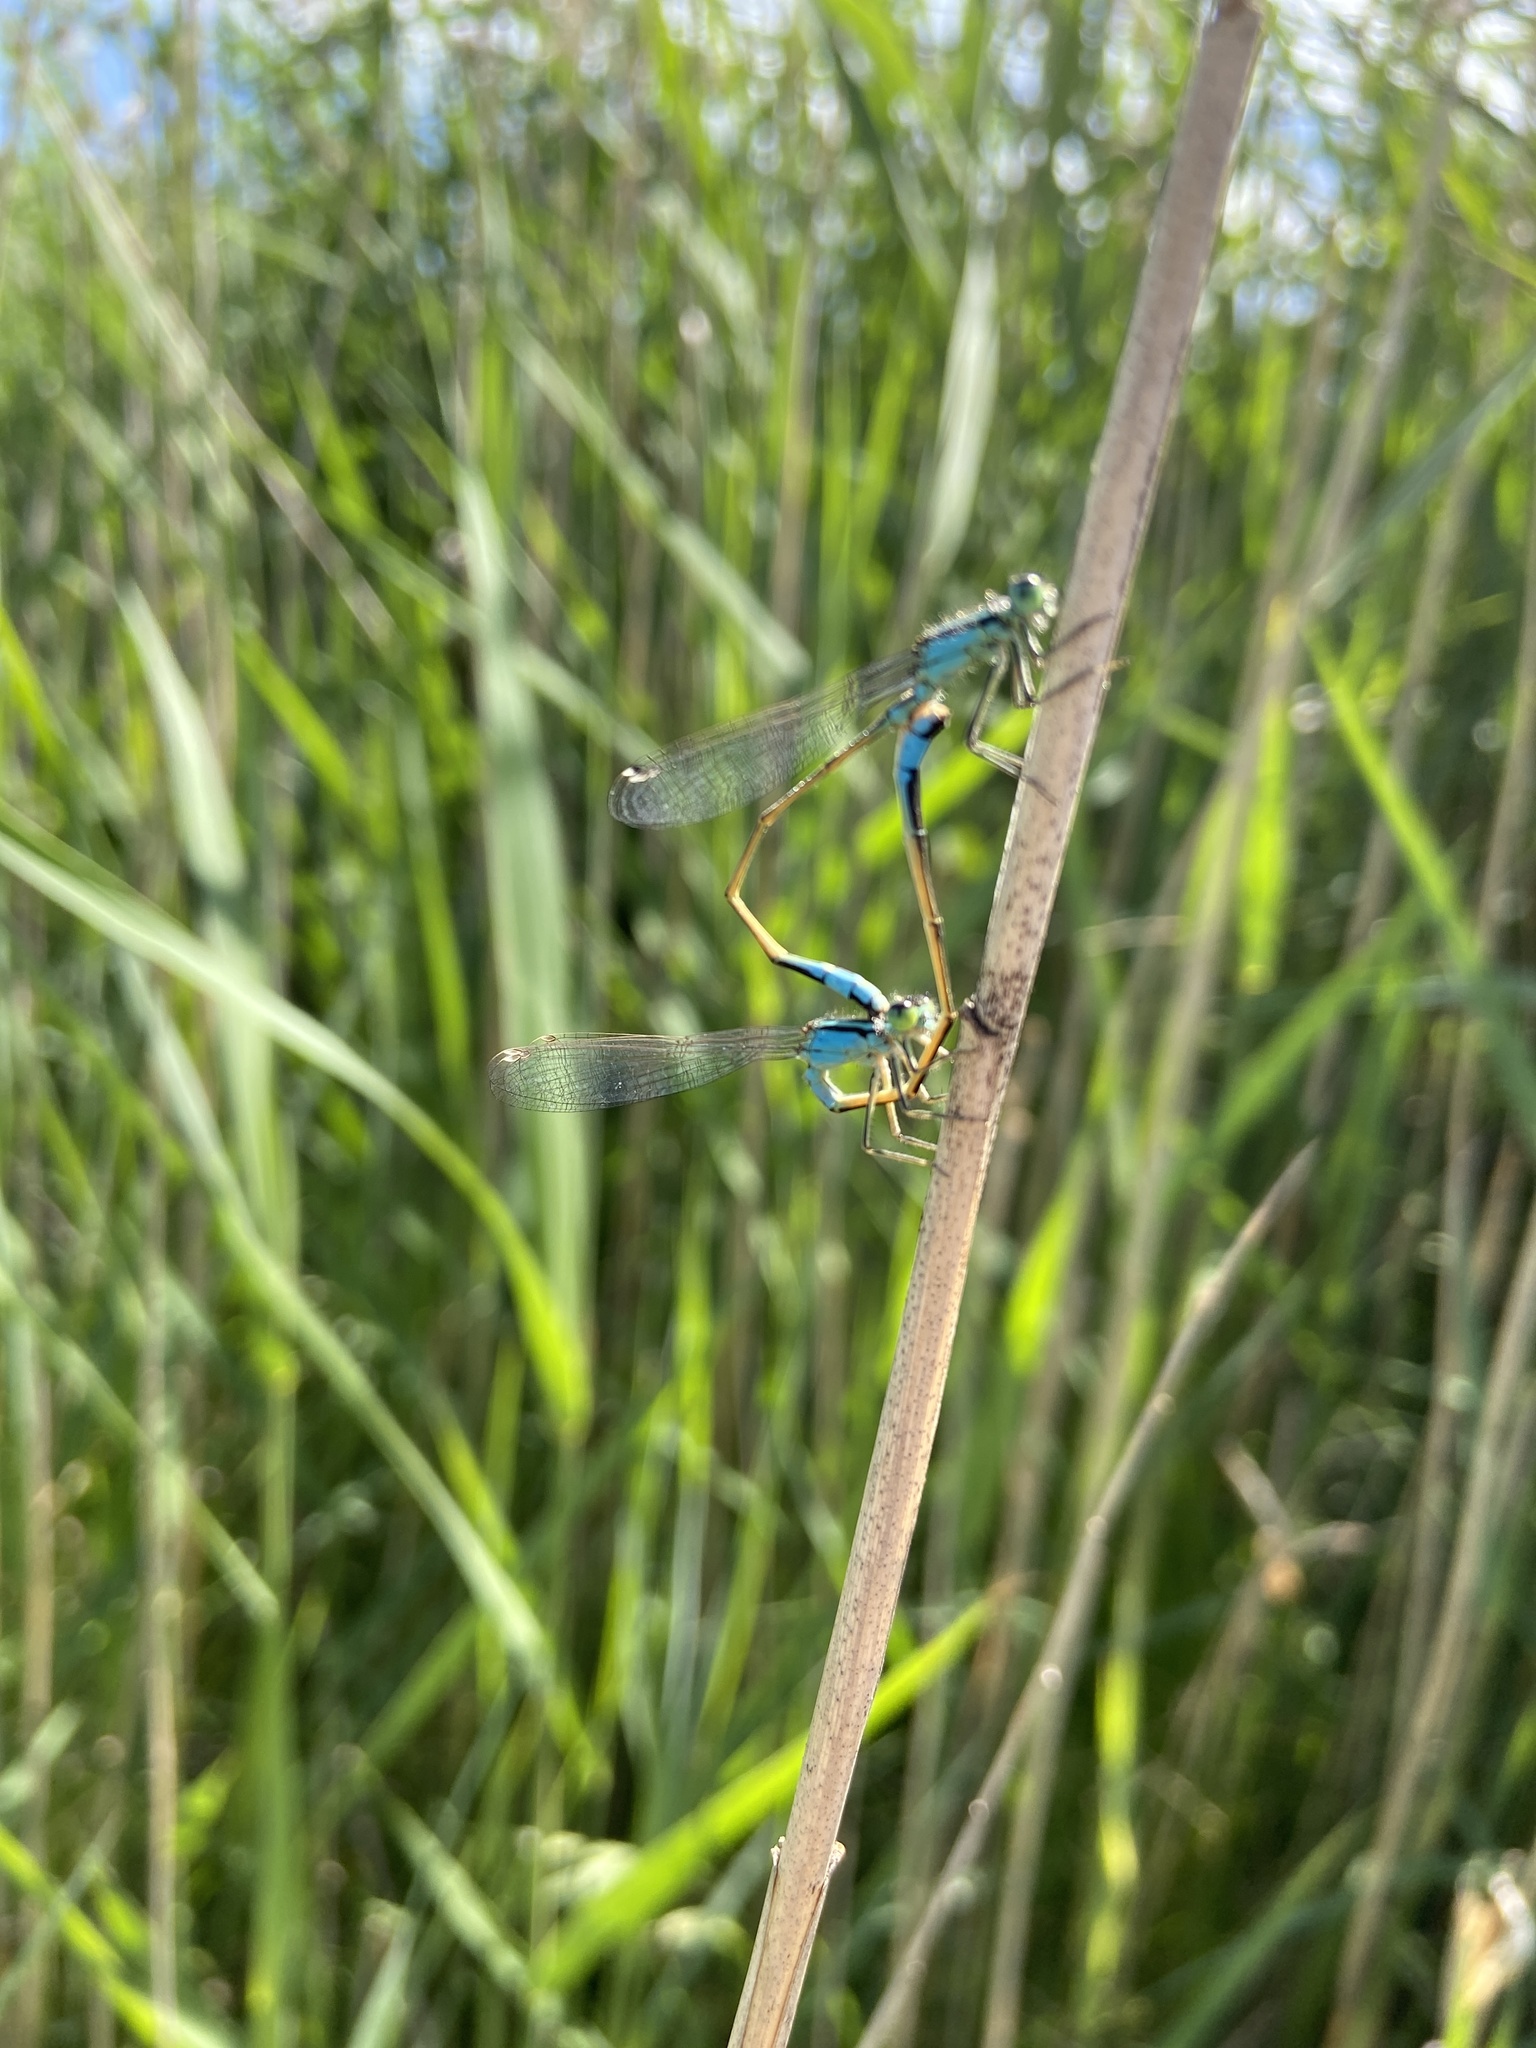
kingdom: Animalia
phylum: Arthropoda
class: Insecta
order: Odonata
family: Coenagrionidae
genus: Ischnura
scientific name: Ischnura elegans
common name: Blue-tailed damselfly
